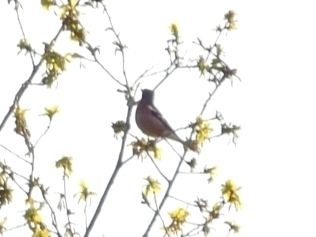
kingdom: Animalia
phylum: Chordata
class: Aves
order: Passeriformes
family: Fringillidae
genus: Fringilla
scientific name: Fringilla coelebs
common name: Common chaffinch
